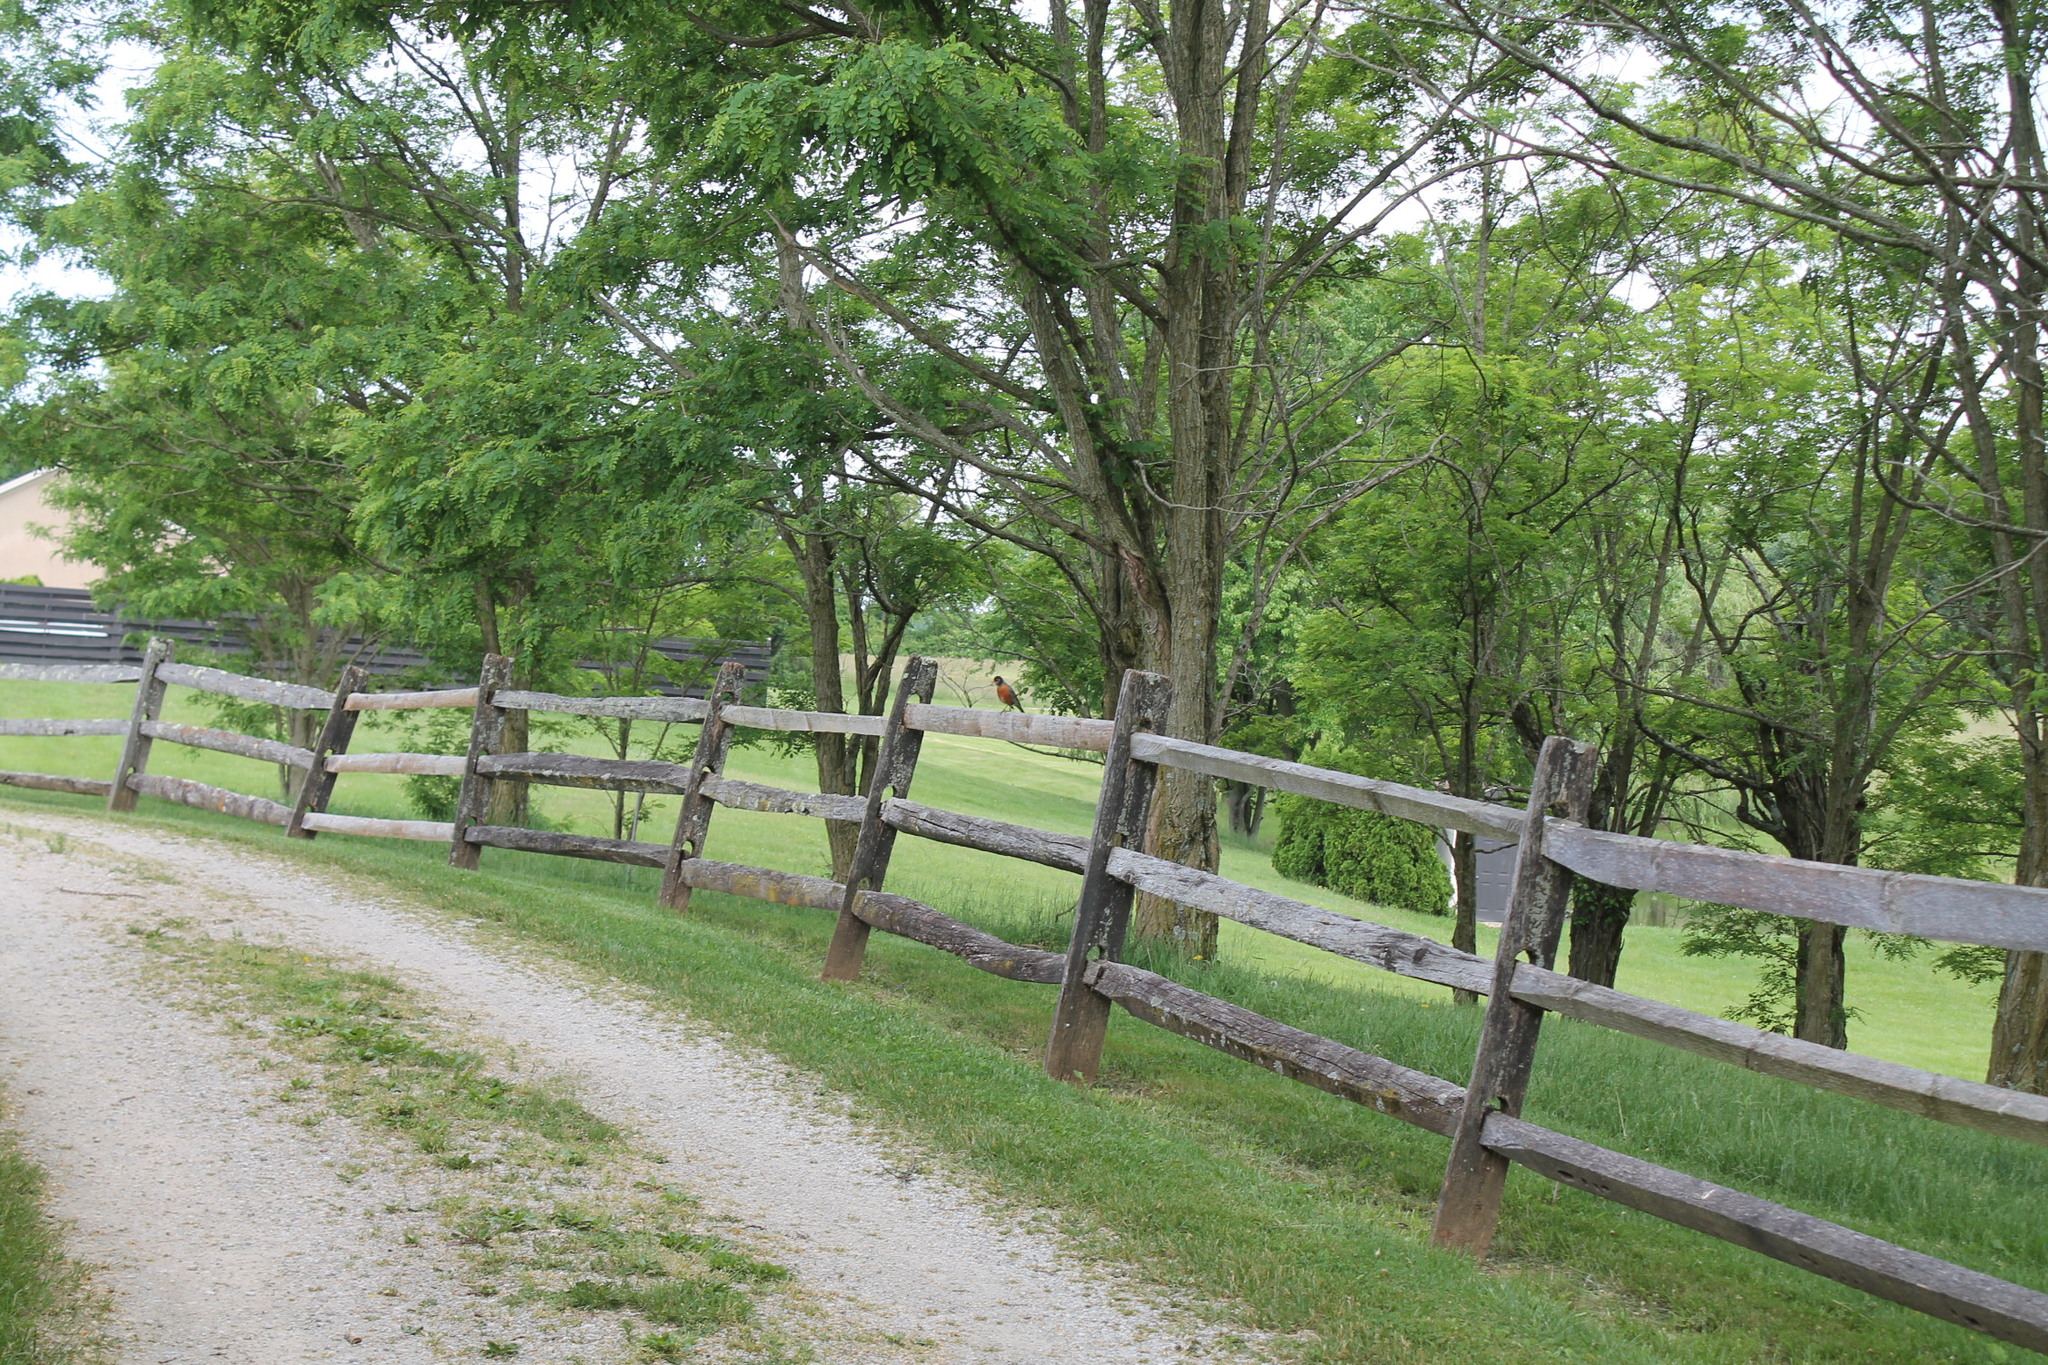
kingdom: Animalia
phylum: Chordata
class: Aves
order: Passeriformes
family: Turdidae
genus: Turdus
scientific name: Turdus migratorius
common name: American robin
